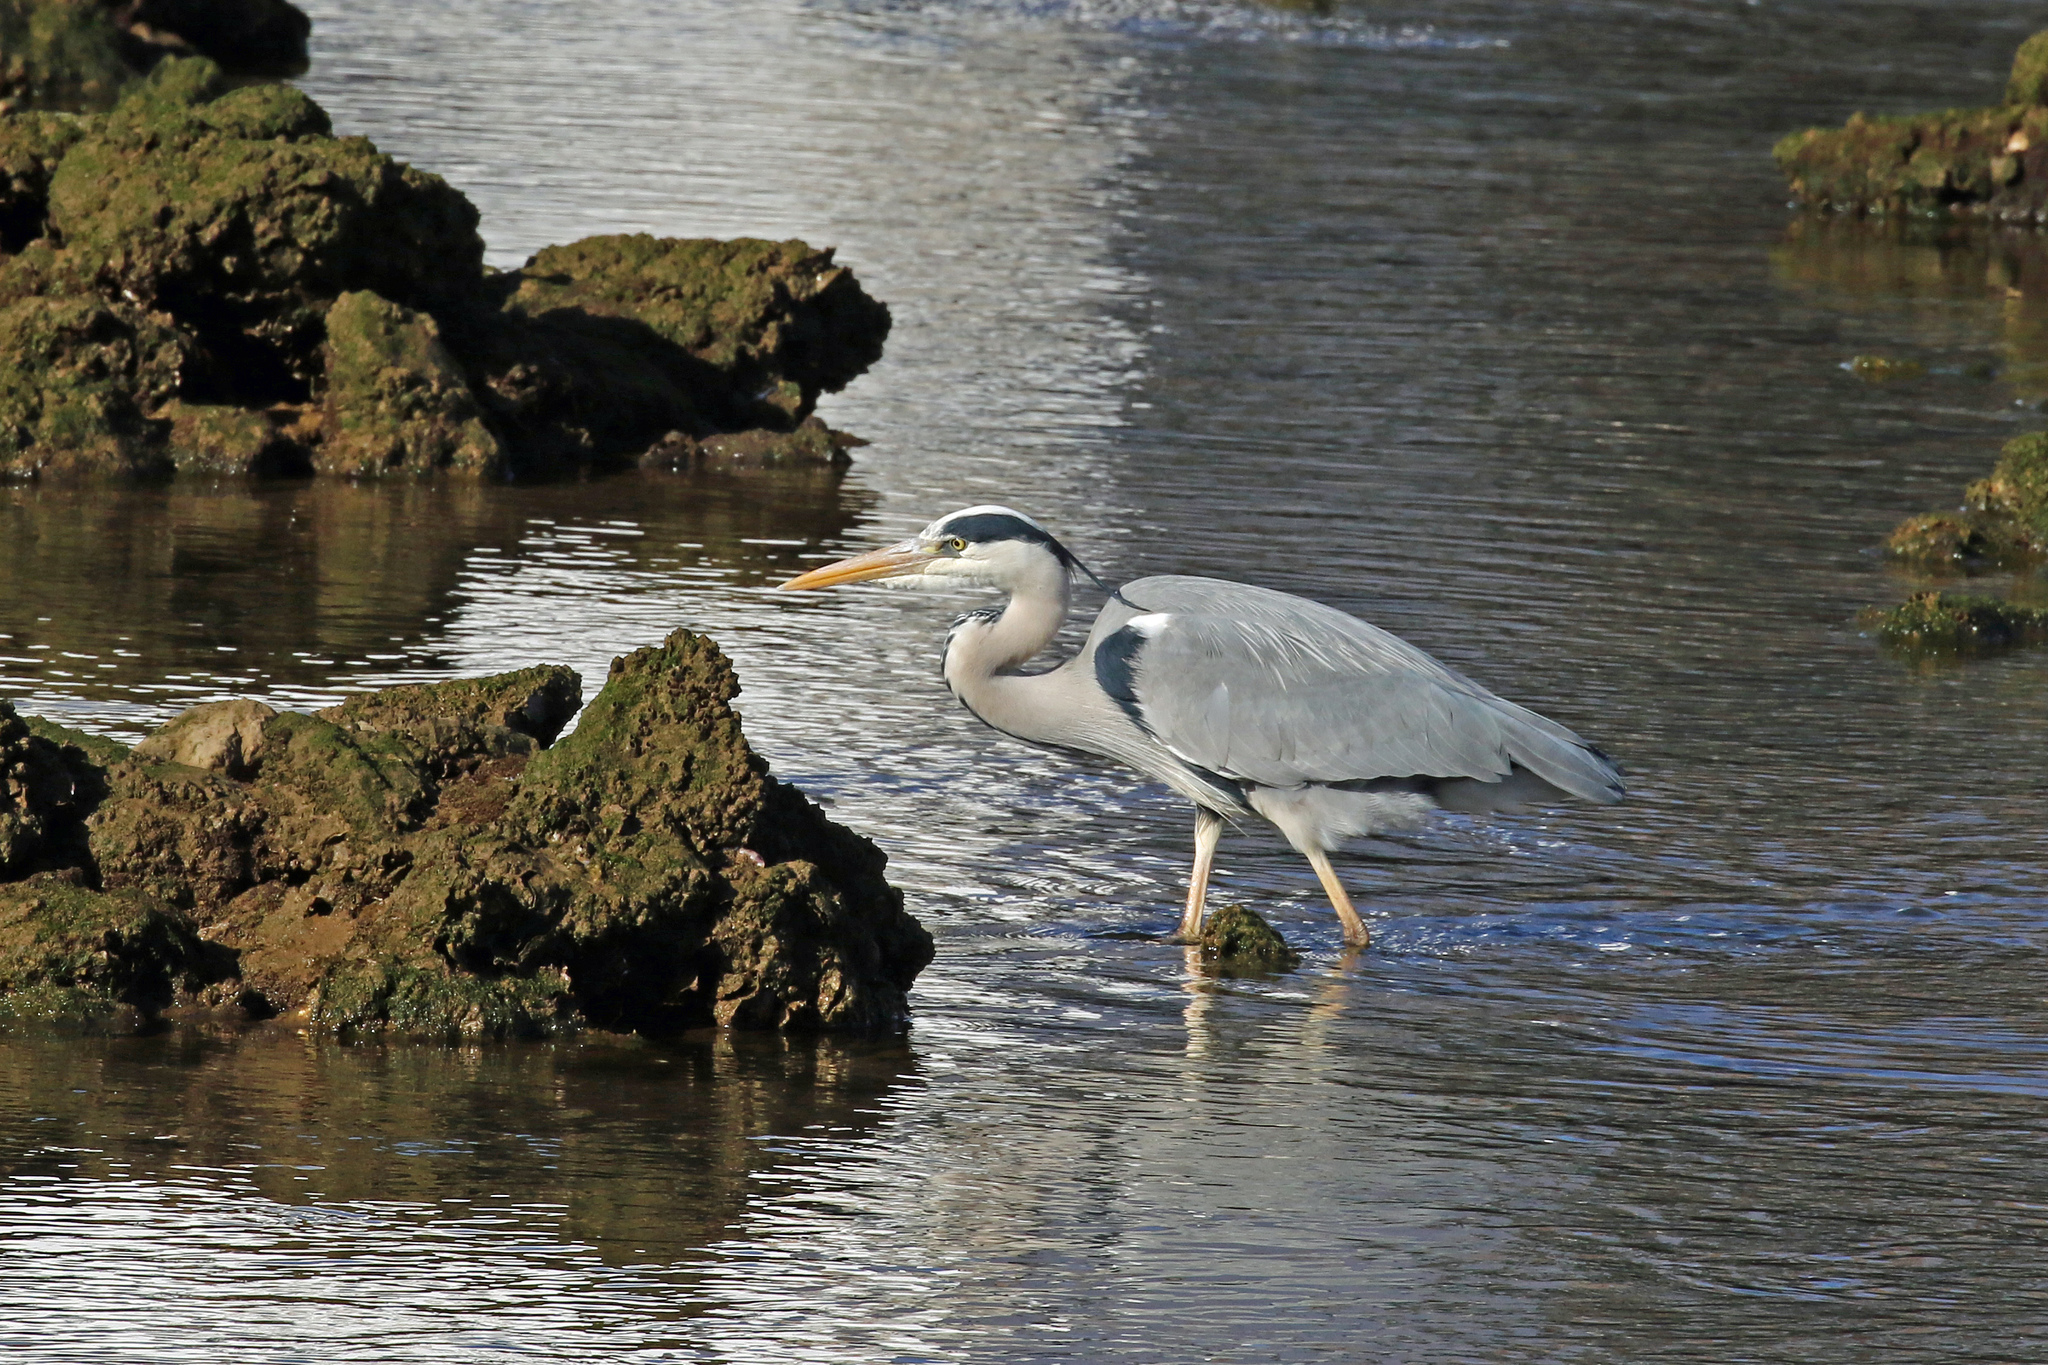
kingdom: Animalia
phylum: Chordata
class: Aves
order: Pelecaniformes
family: Ardeidae
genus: Ardea
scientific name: Ardea cinerea
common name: Grey heron
